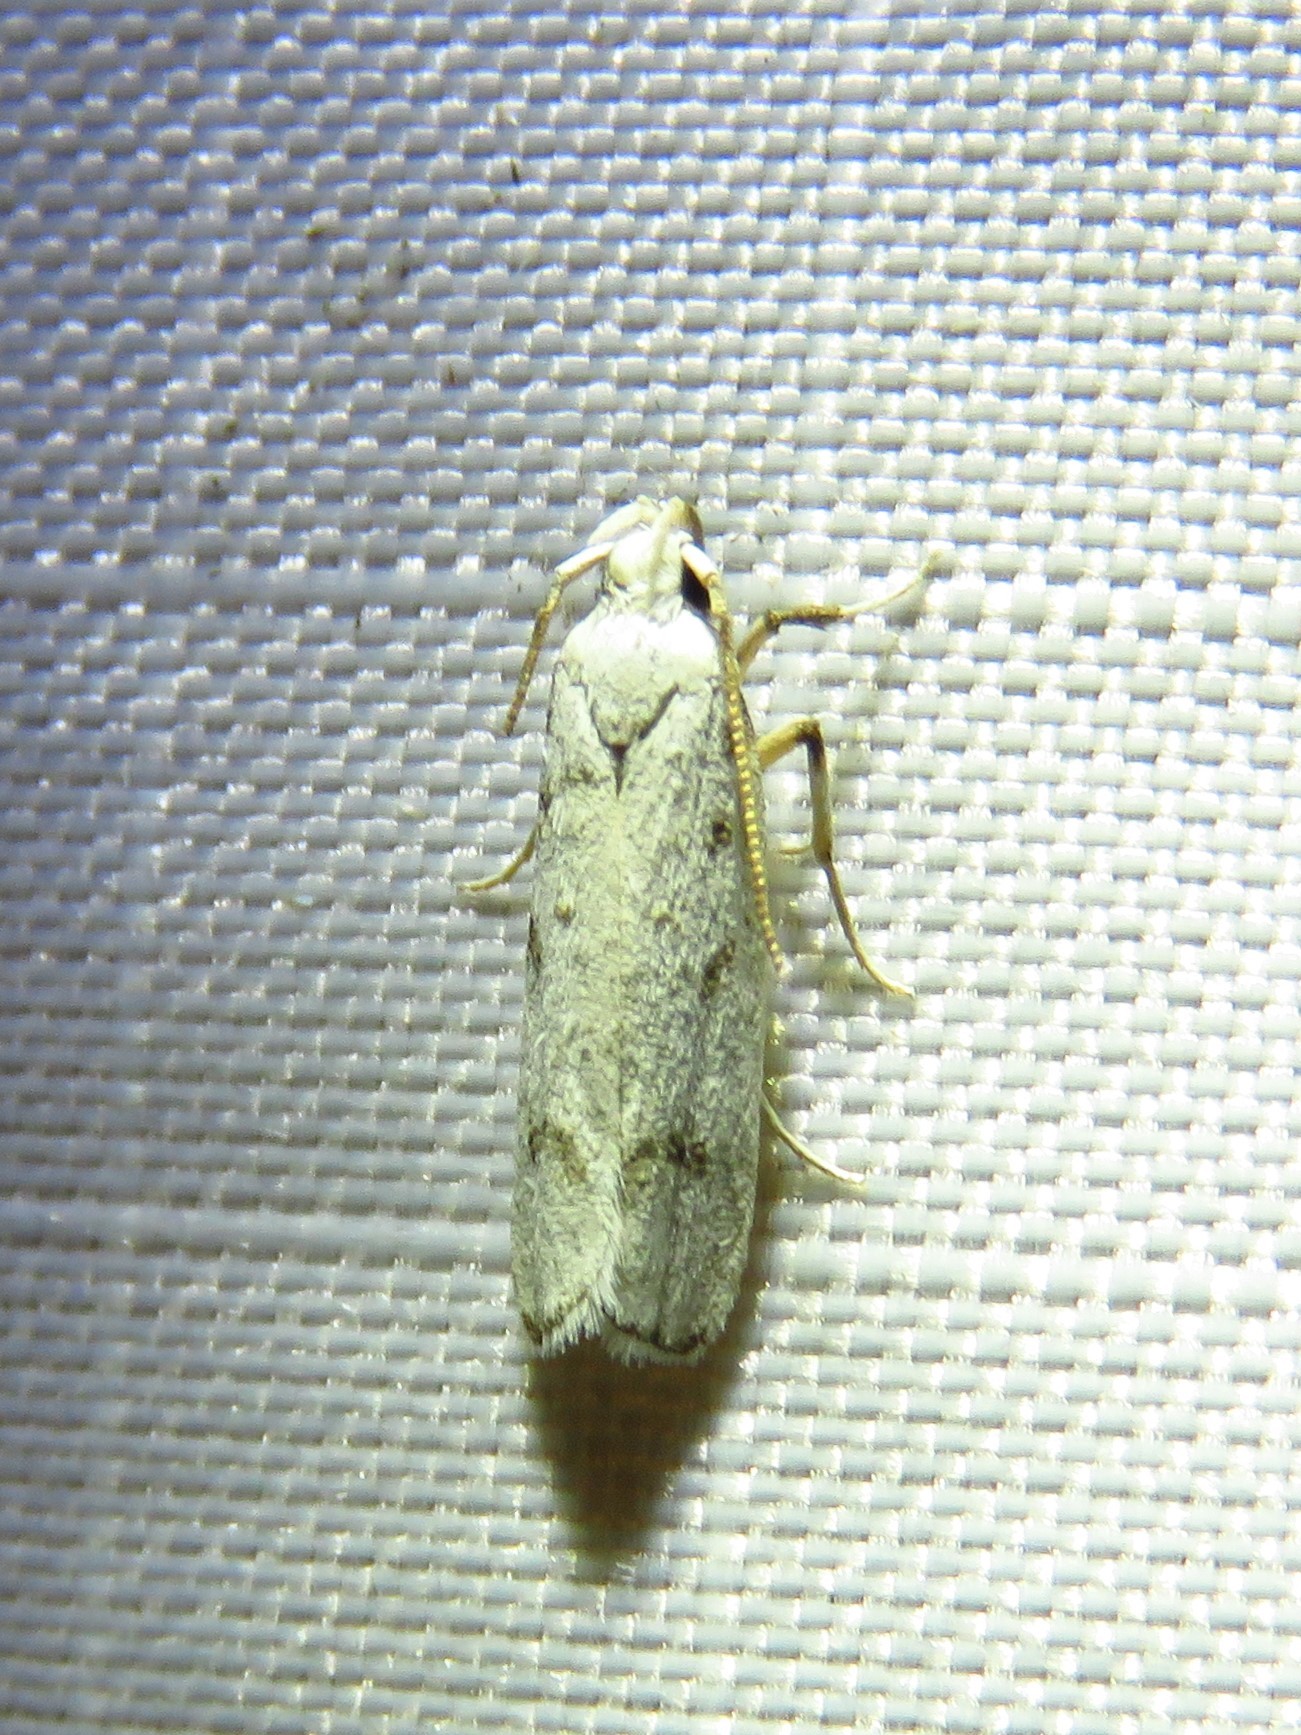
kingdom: Animalia
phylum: Arthropoda
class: Insecta
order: Lepidoptera
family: Autostichidae
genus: Glyphidocera
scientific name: Glyphidocera lactiflosella
